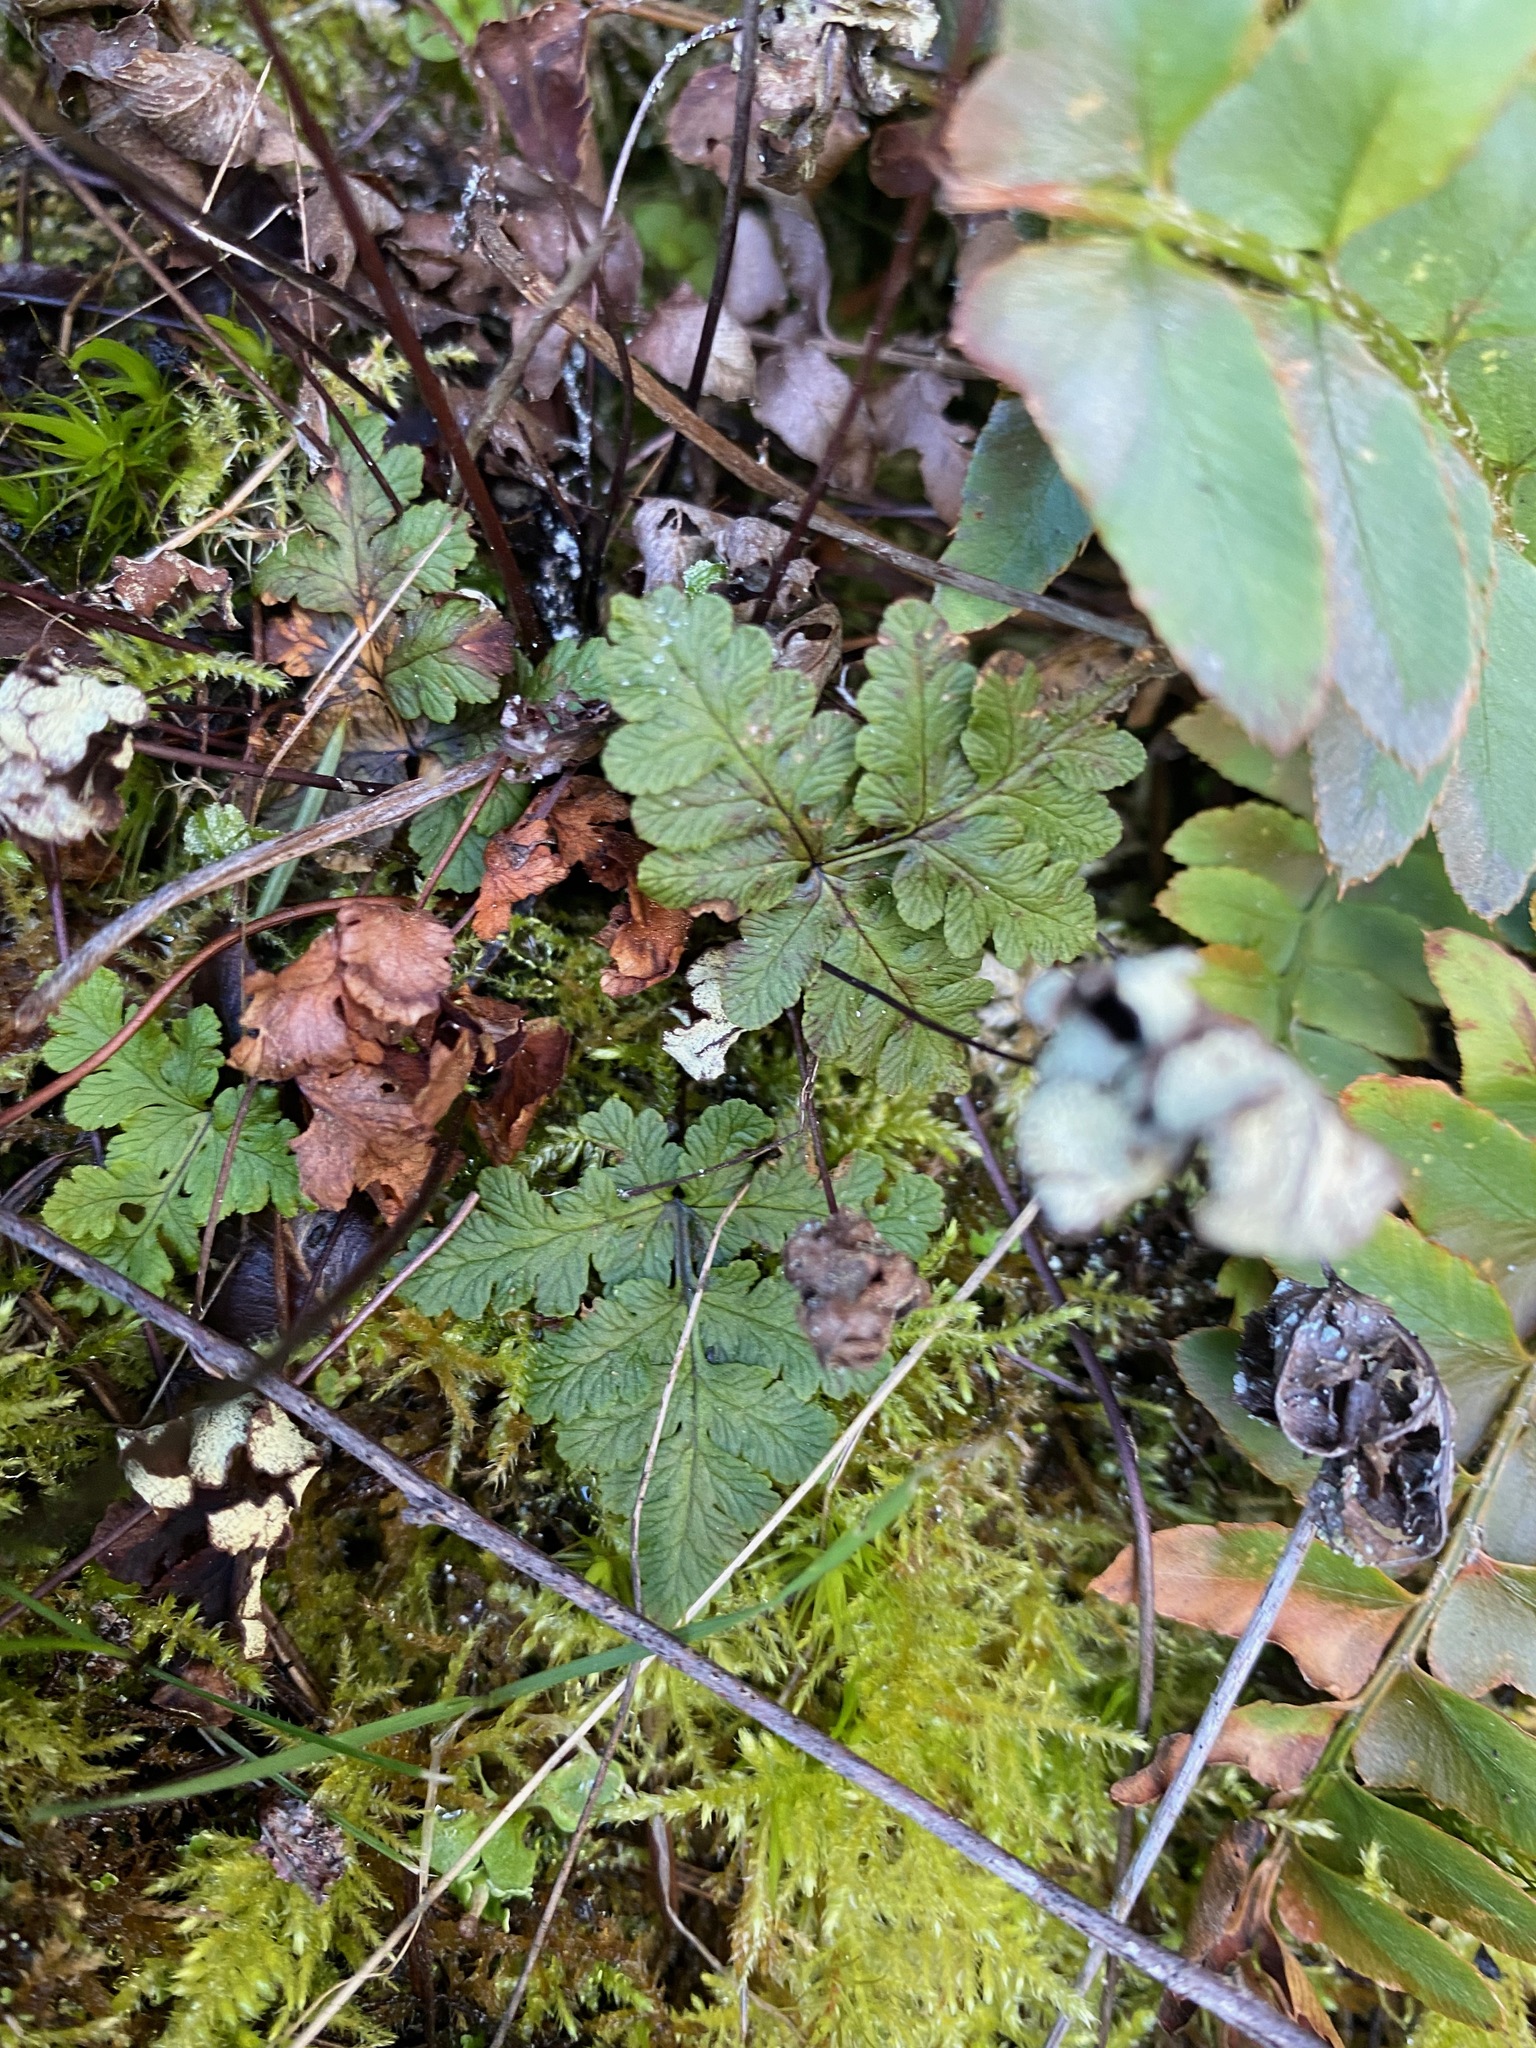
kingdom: Plantae
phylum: Tracheophyta
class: Polypodiopsida
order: Polypodiales
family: Pteridaceae
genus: Pentagramma
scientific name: Pentagramma triangularis
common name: Gold fern
